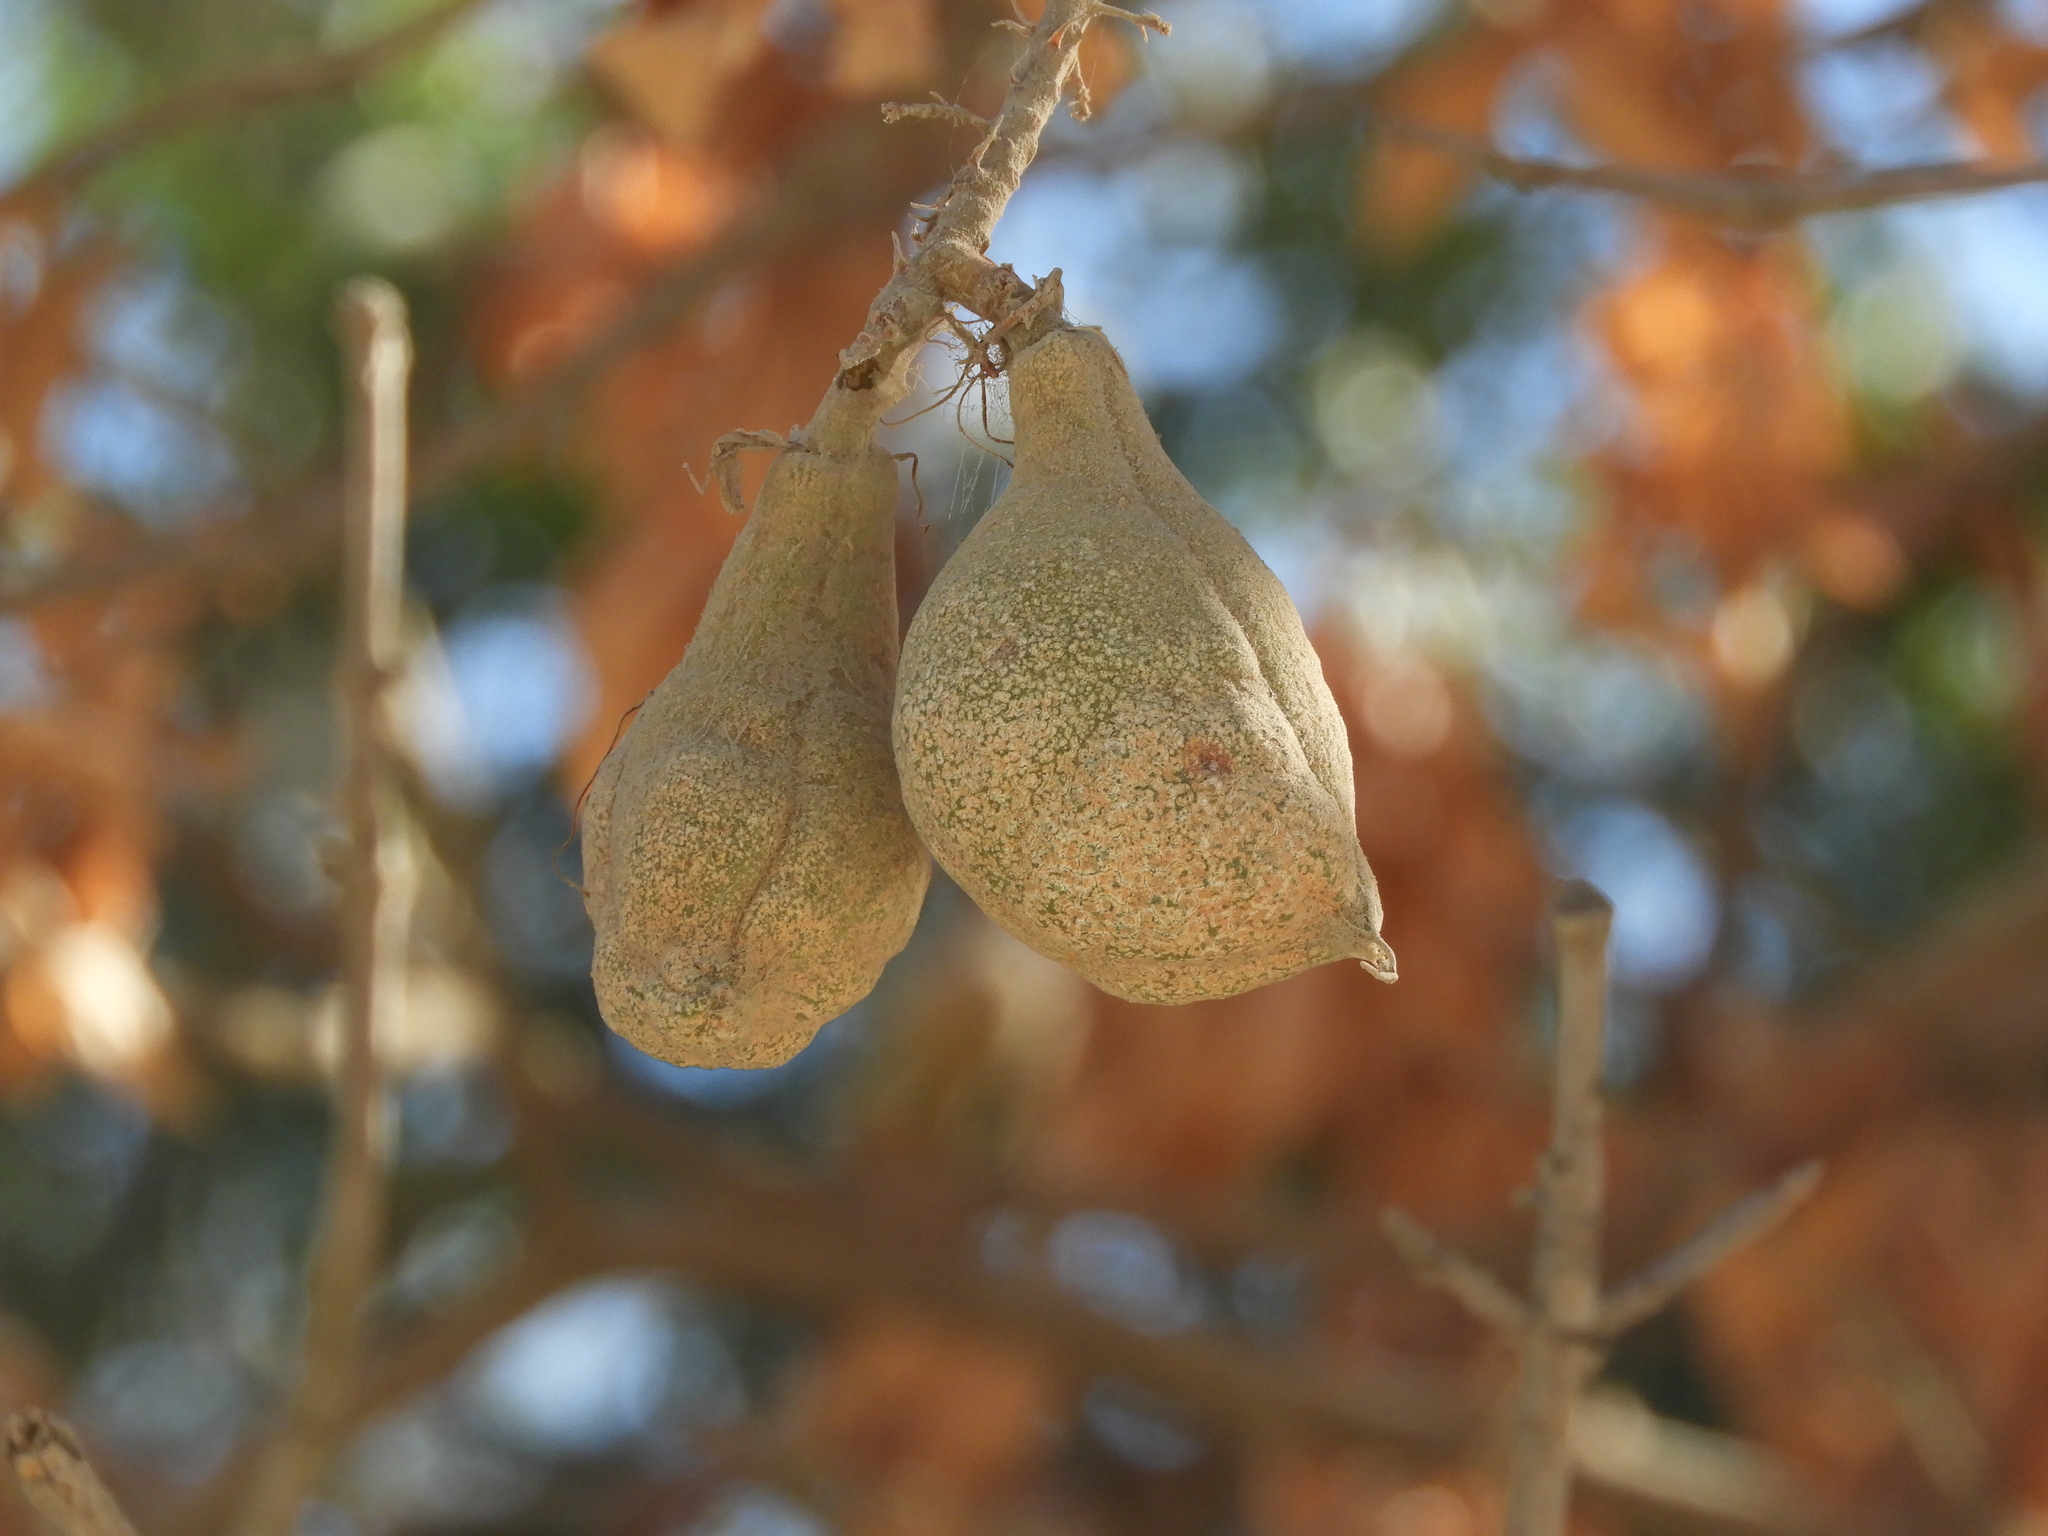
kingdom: Plantae
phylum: Tracheophyta
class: Magnoliopsida
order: Sapindales
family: Sapindaceae
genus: Aesculus
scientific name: Aesculus californica
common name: California buckeye
